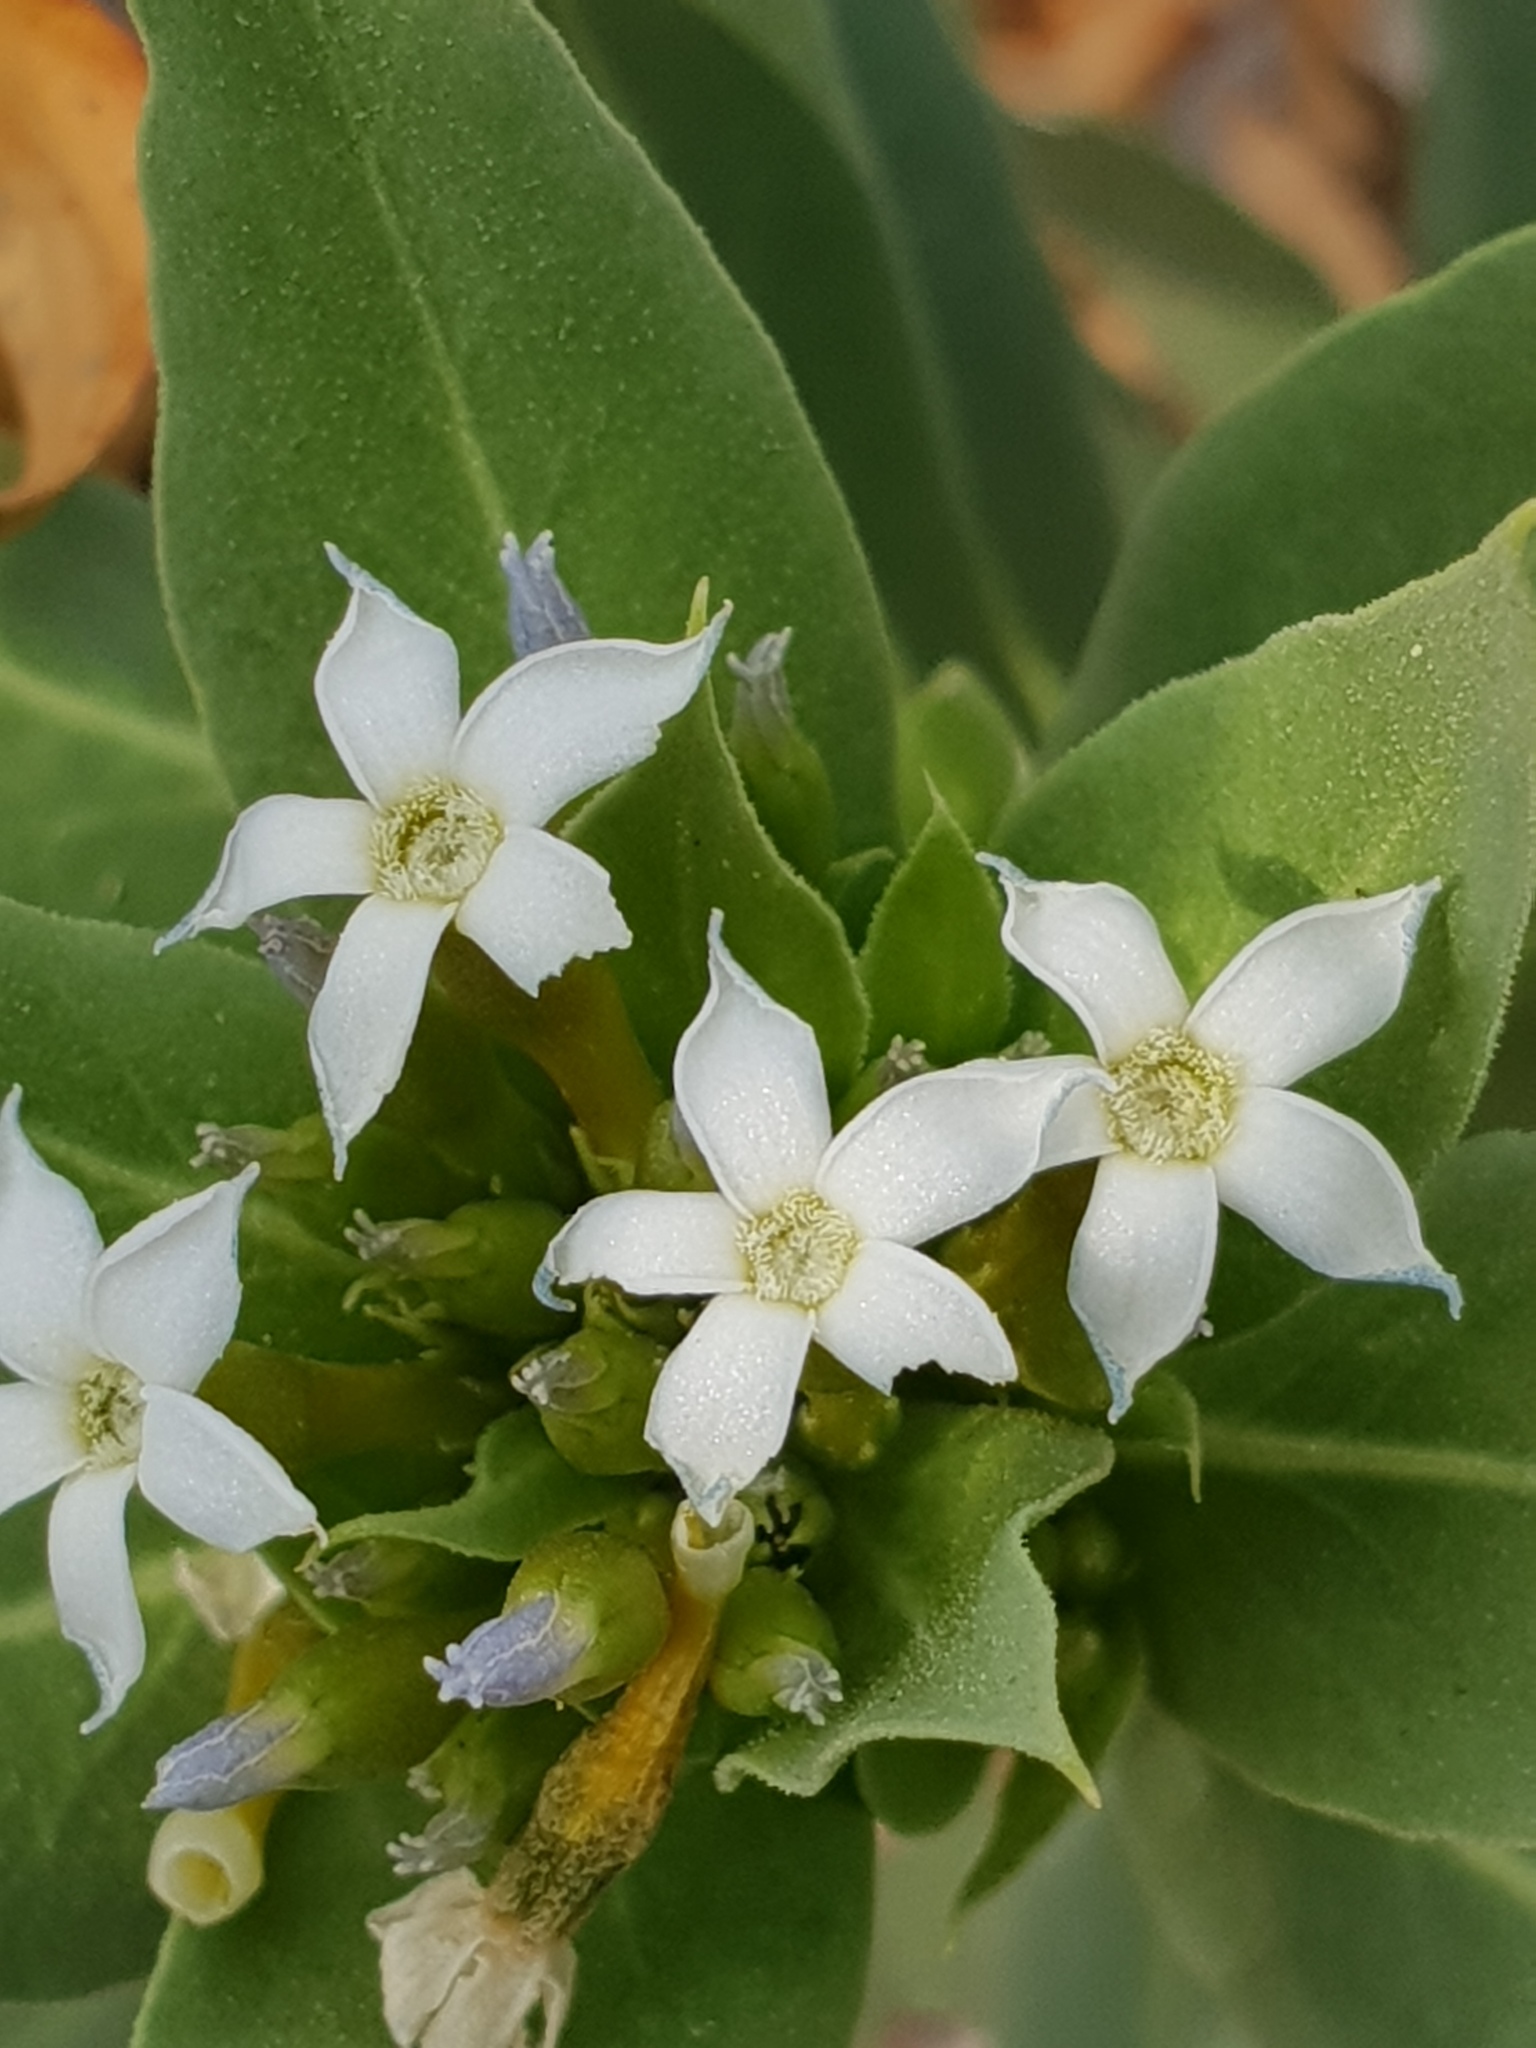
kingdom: Plantae
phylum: Tracheophyta
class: Magnoliopsida
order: Gentianales
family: Apocynaceae
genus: Rhazya
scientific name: Rhazya stricta
